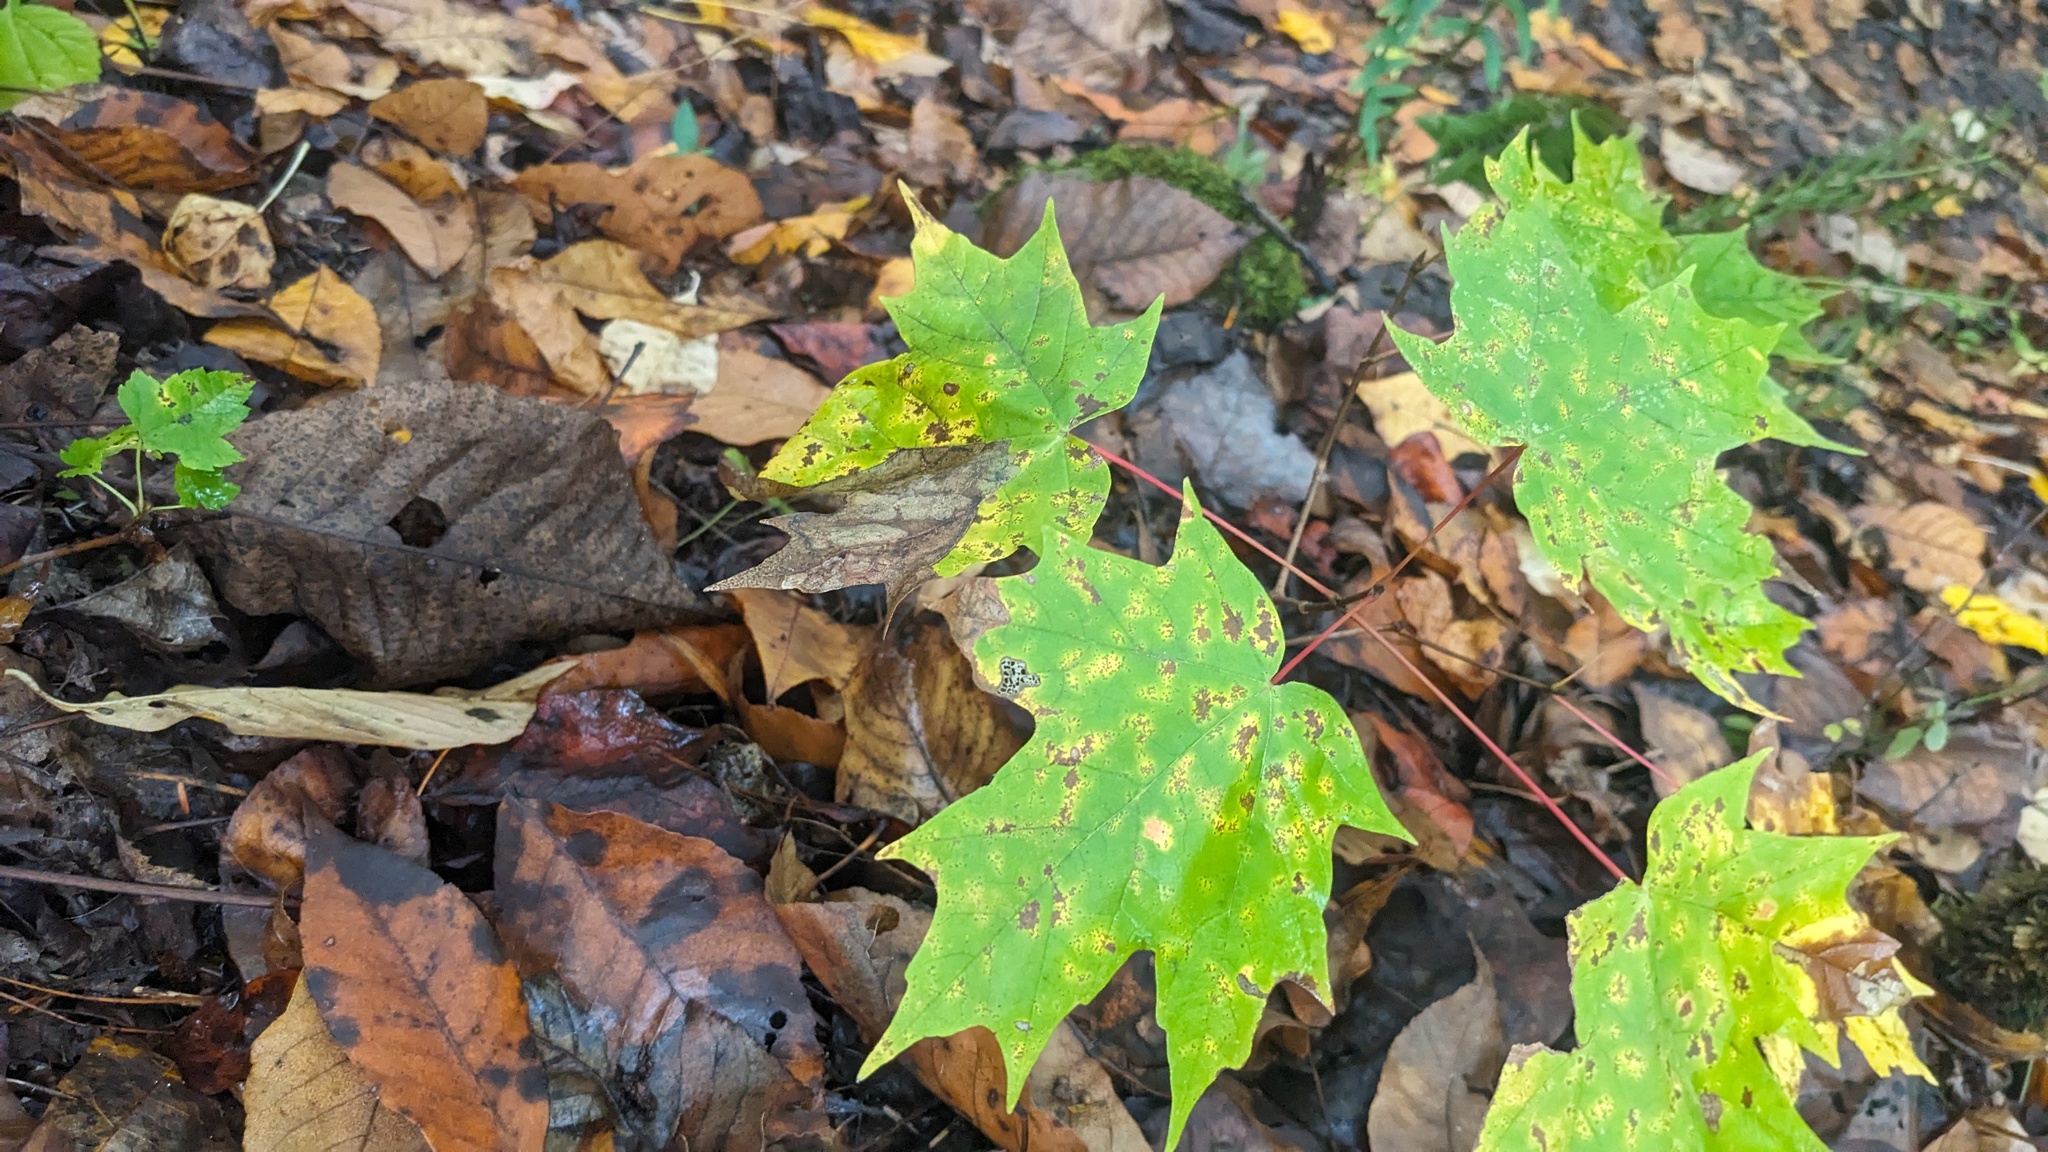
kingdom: Plantae
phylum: Tracheophyta
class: Magnoliopsida
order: Sapindales
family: Sapindaceae
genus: Acer
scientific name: Acer saccharum
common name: Sugar maple
